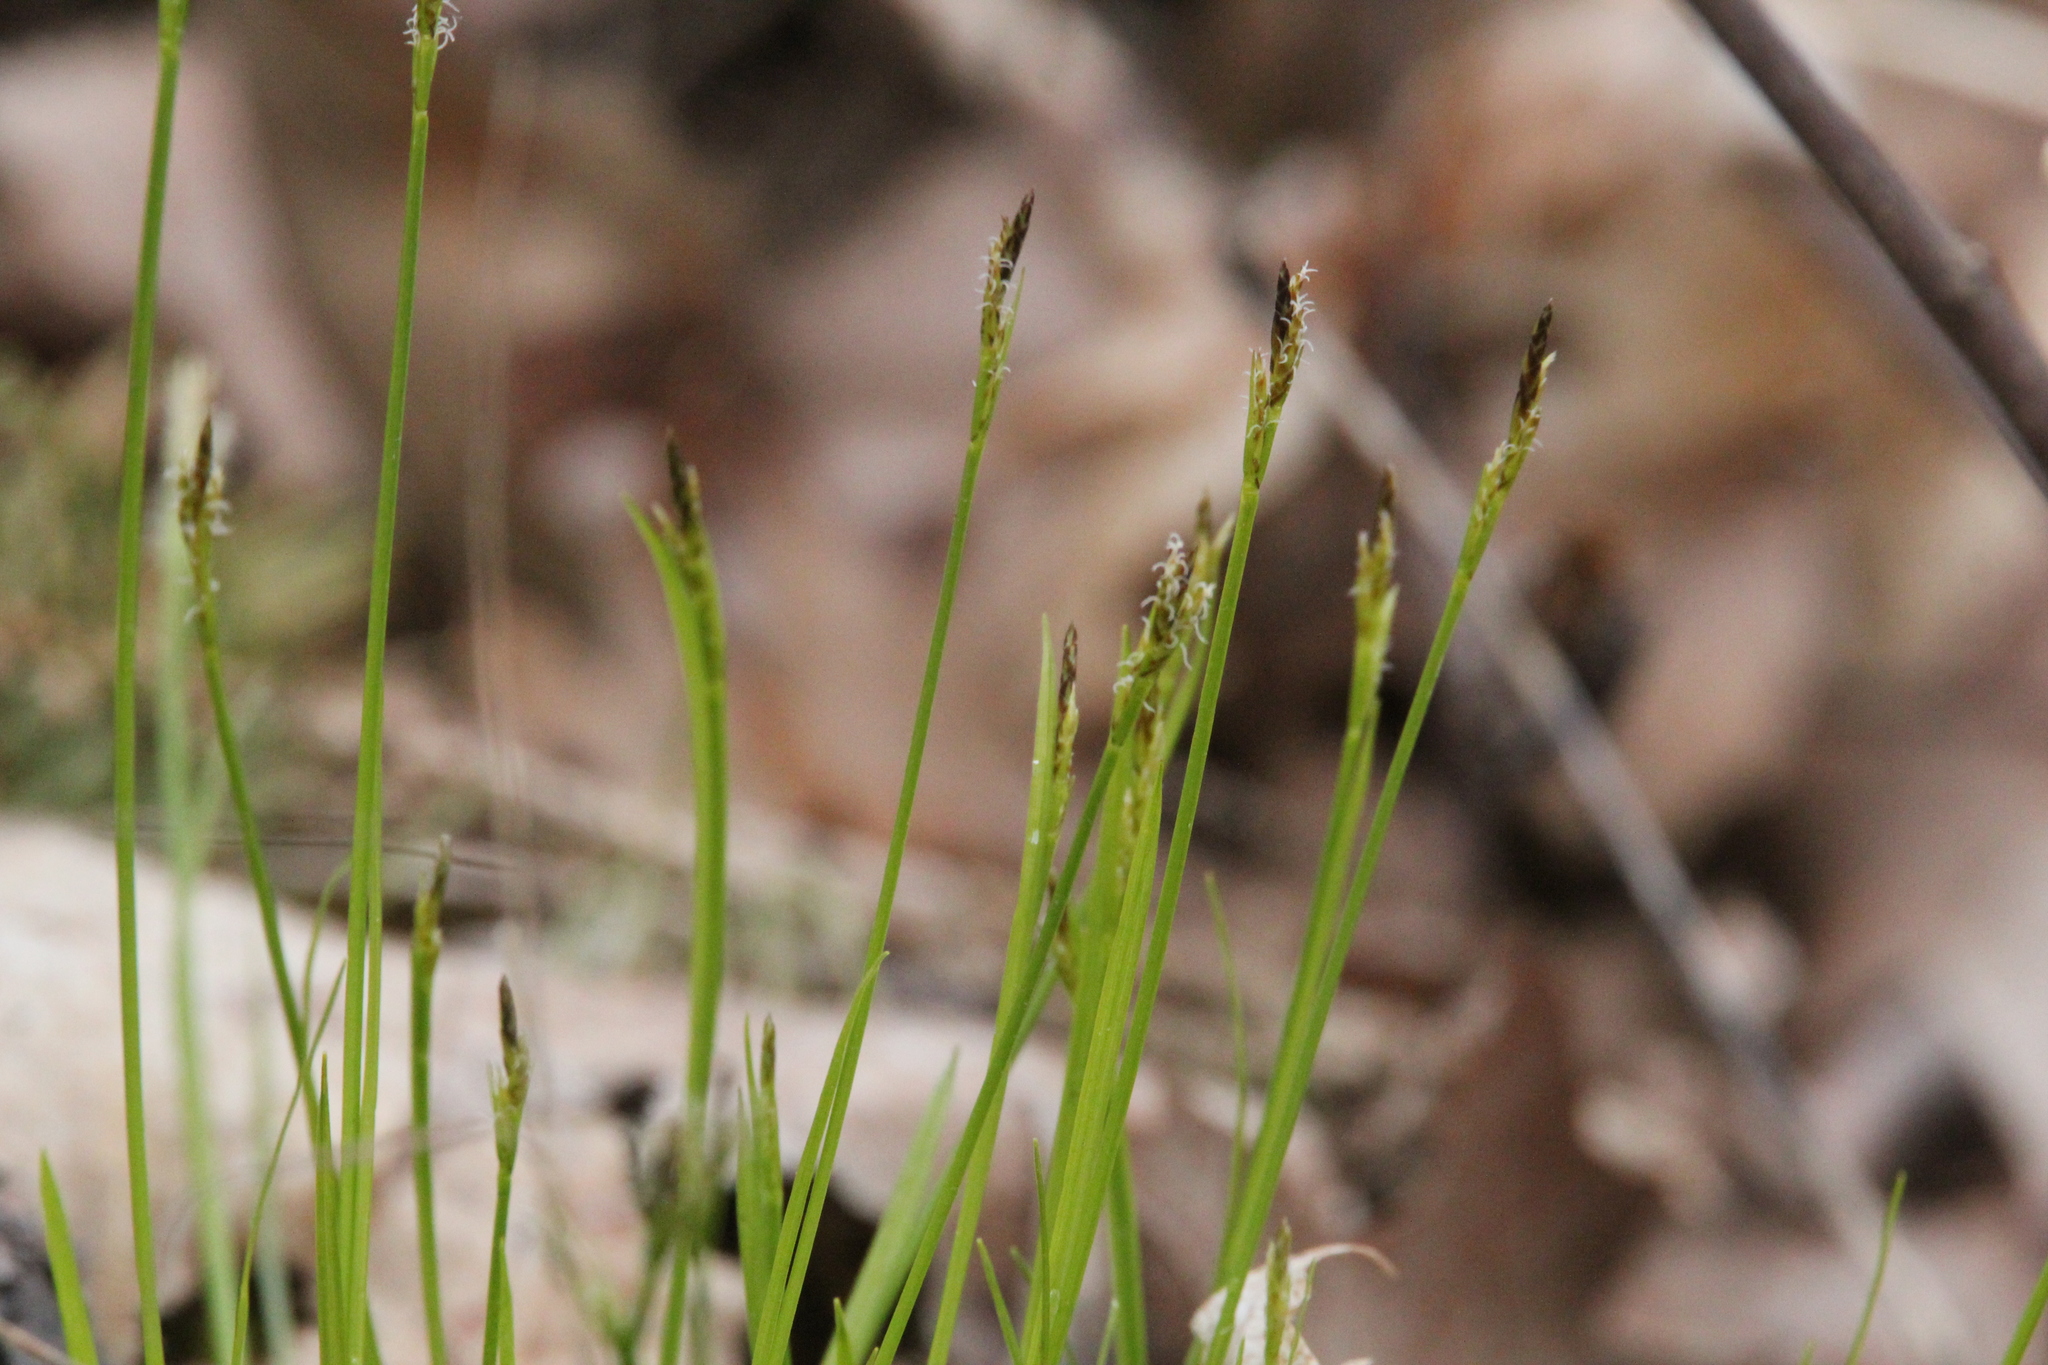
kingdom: Plantae
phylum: Tracheophyta
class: Liliopsida
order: Poales
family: Cyperaceae
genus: Carex
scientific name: Carex pedunculata
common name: Pedunculate sedge
